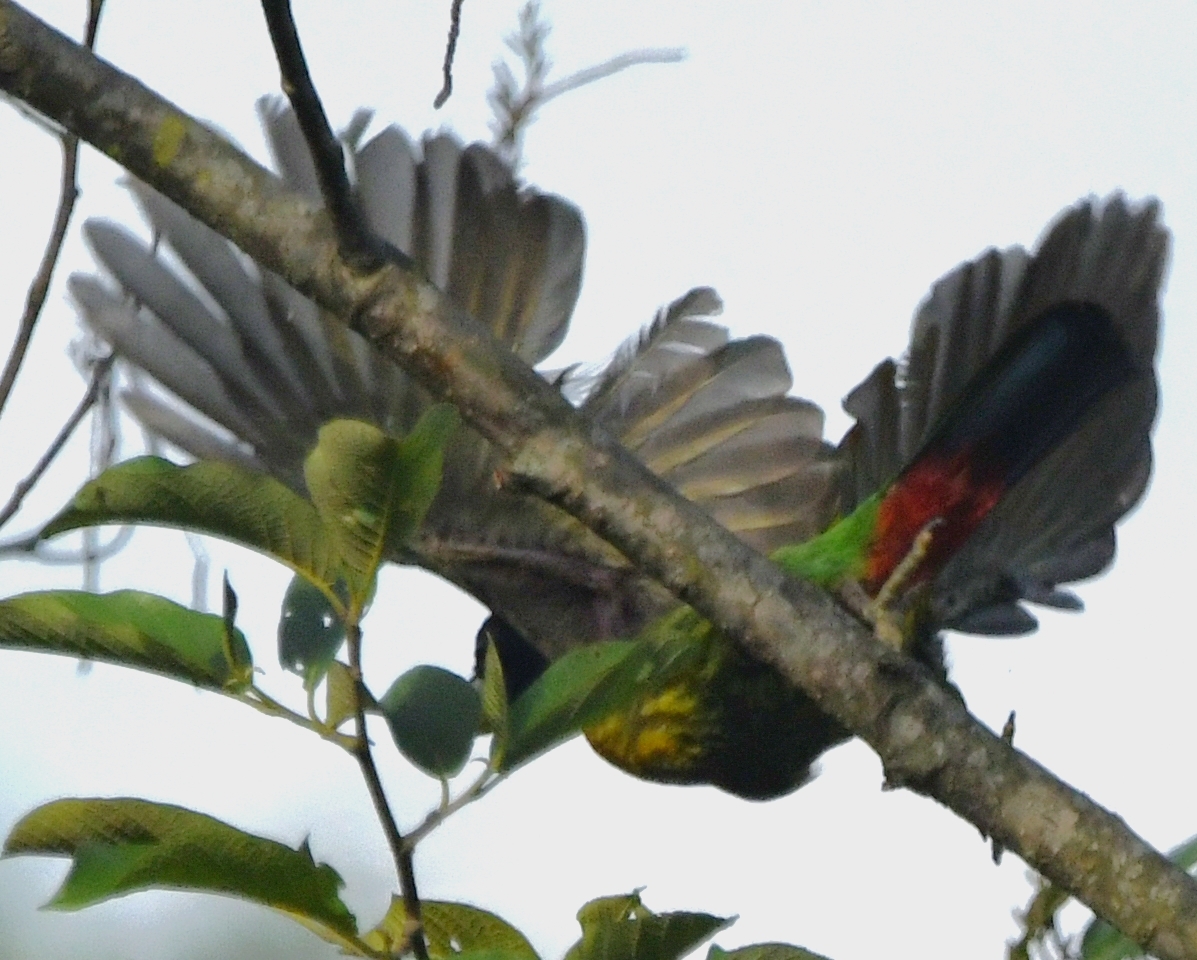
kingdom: Animalia
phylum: Chordata
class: Aves
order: Piciformes
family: Megalaimidae
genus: Psilopogon
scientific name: Psilopogon virens
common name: Great barbet
